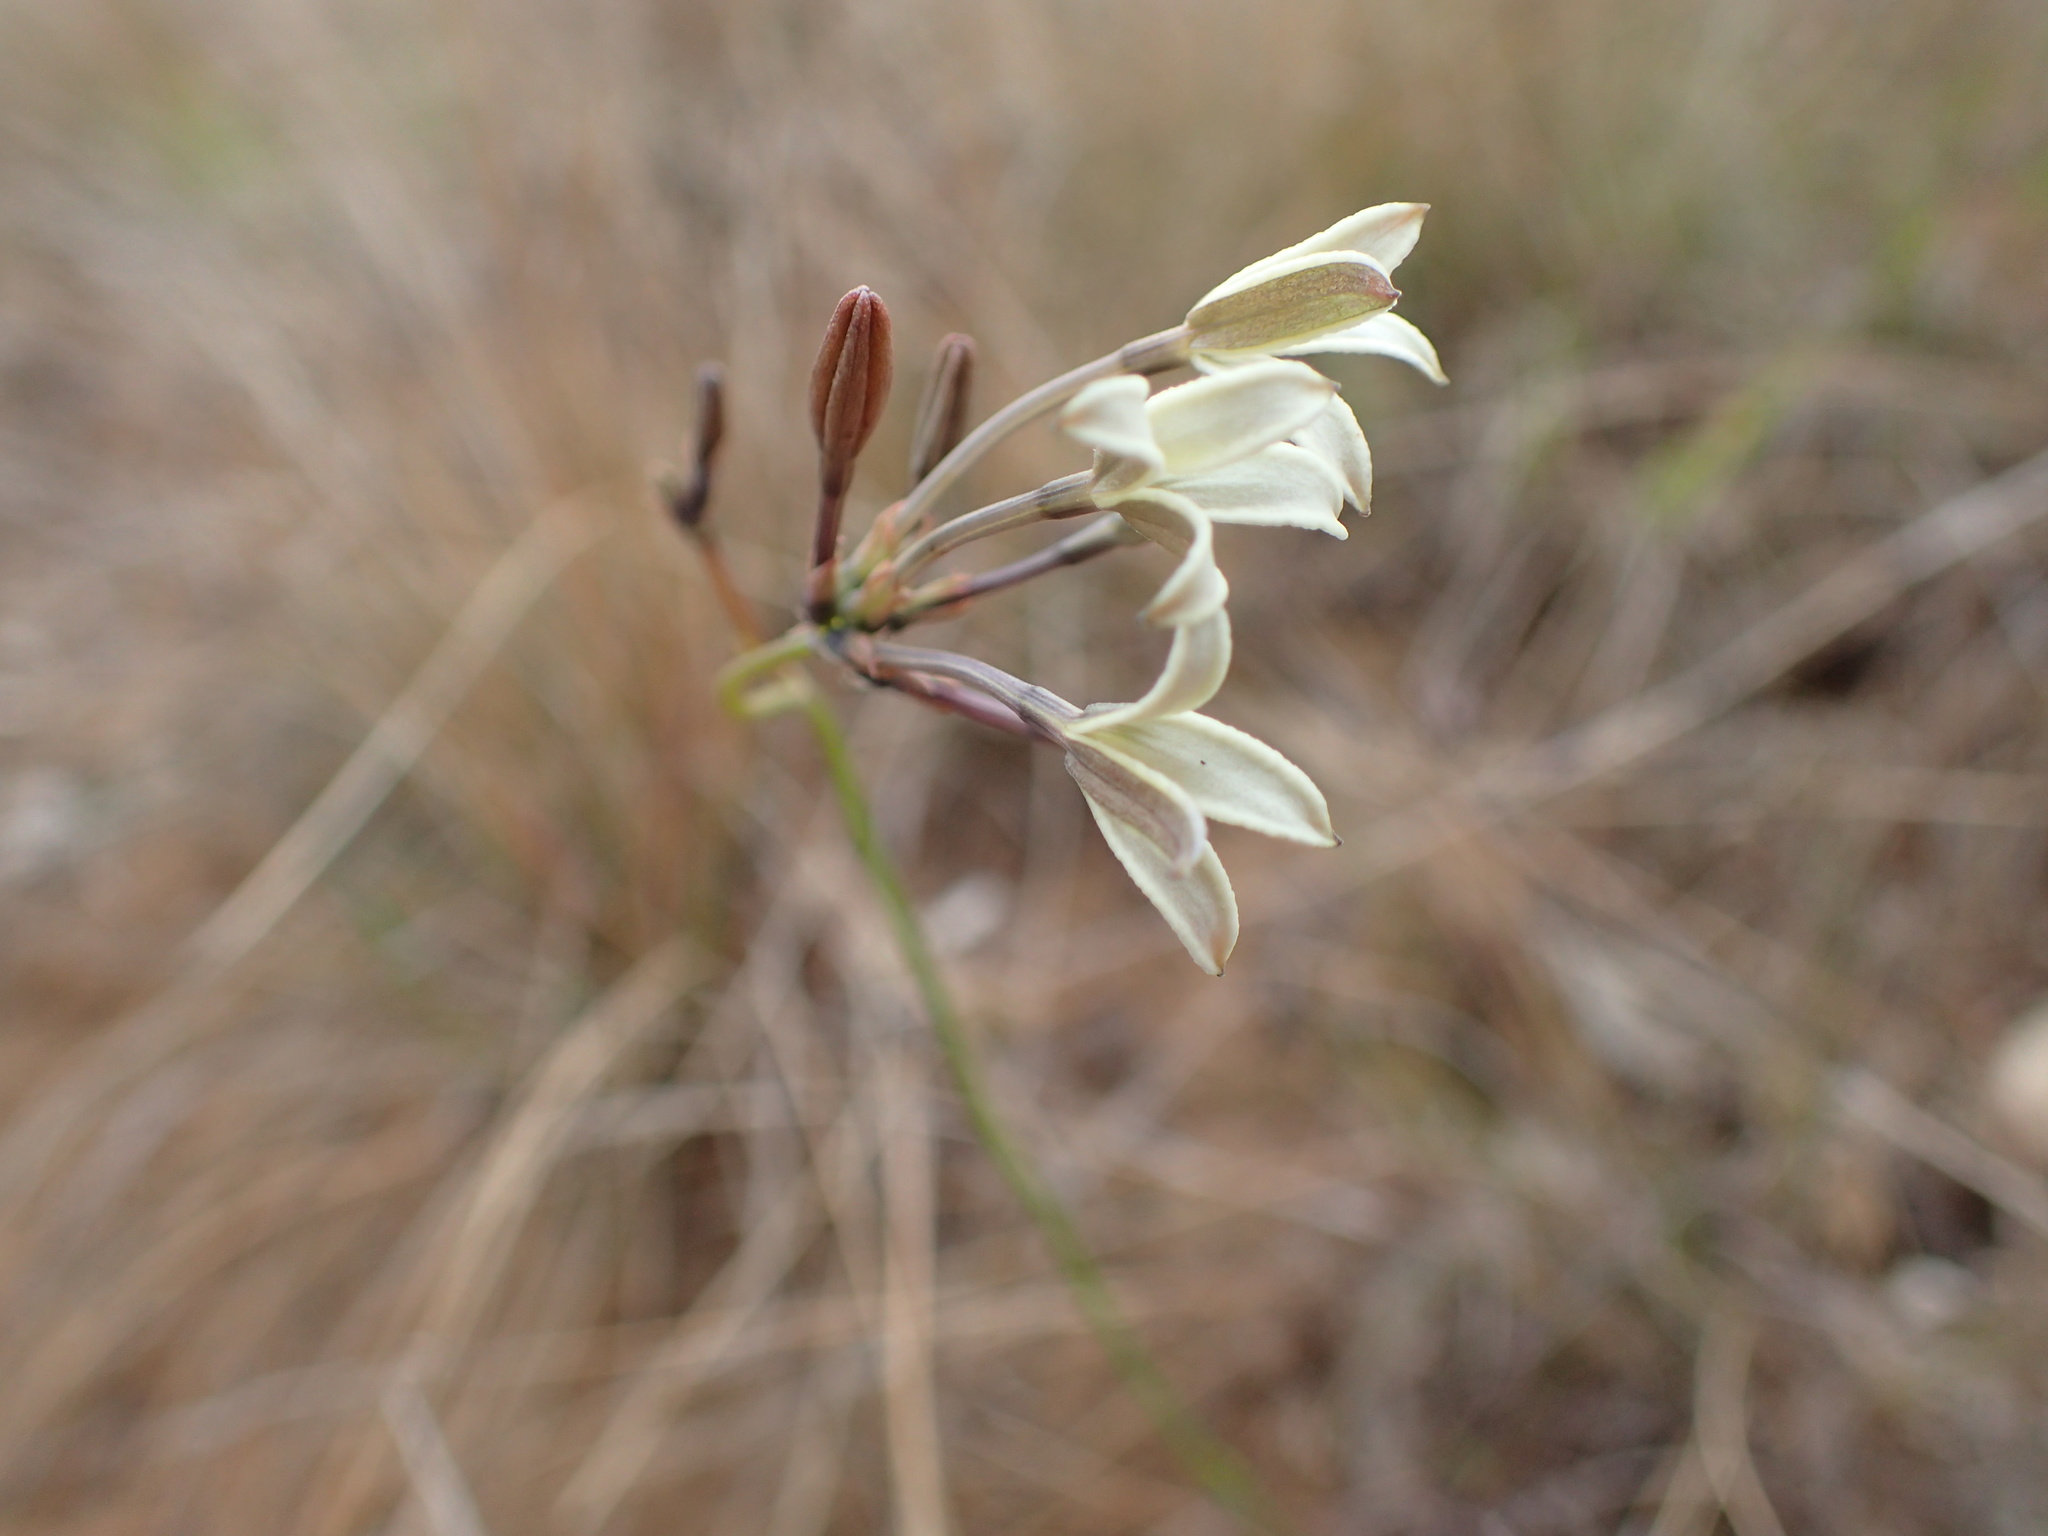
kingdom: Plantae
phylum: Tracheophyta
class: Magnoliopsida
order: Gentianales
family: Rubiaceae
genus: Kohautia
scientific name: Kohautia amatymbica
